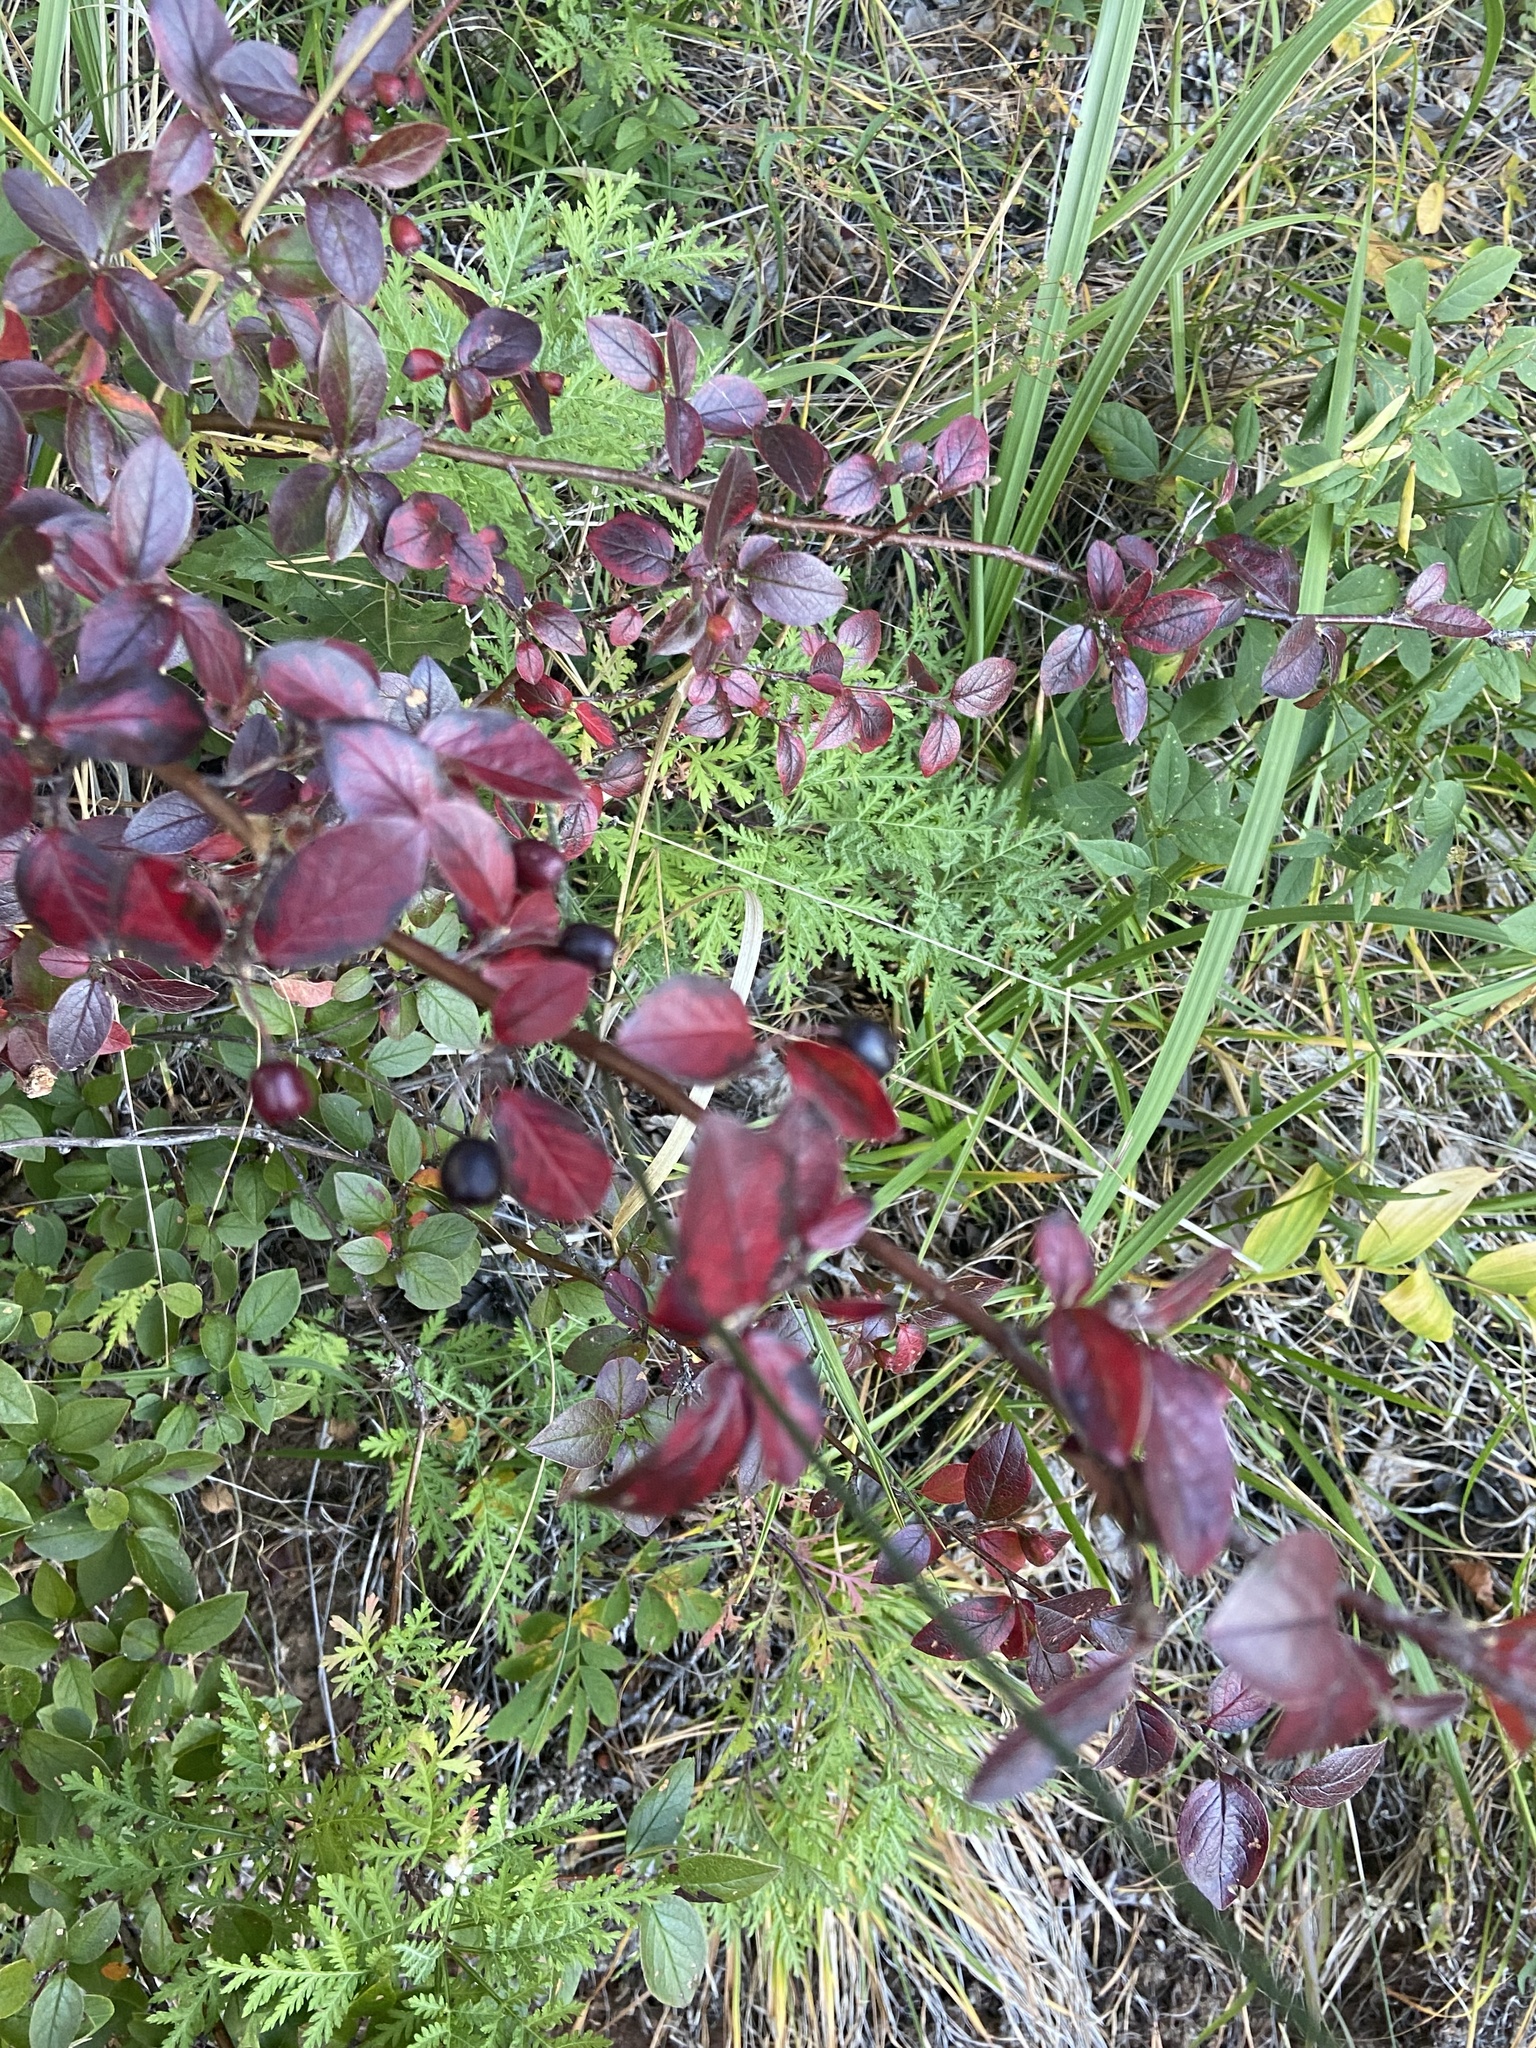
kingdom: Plantae
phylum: Tracheophyta
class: Magnoliopsida
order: Rosales
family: Rosaceae
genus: Cotoneaster
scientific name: Cotoneaster acutifolius
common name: Peking cotoneaster
